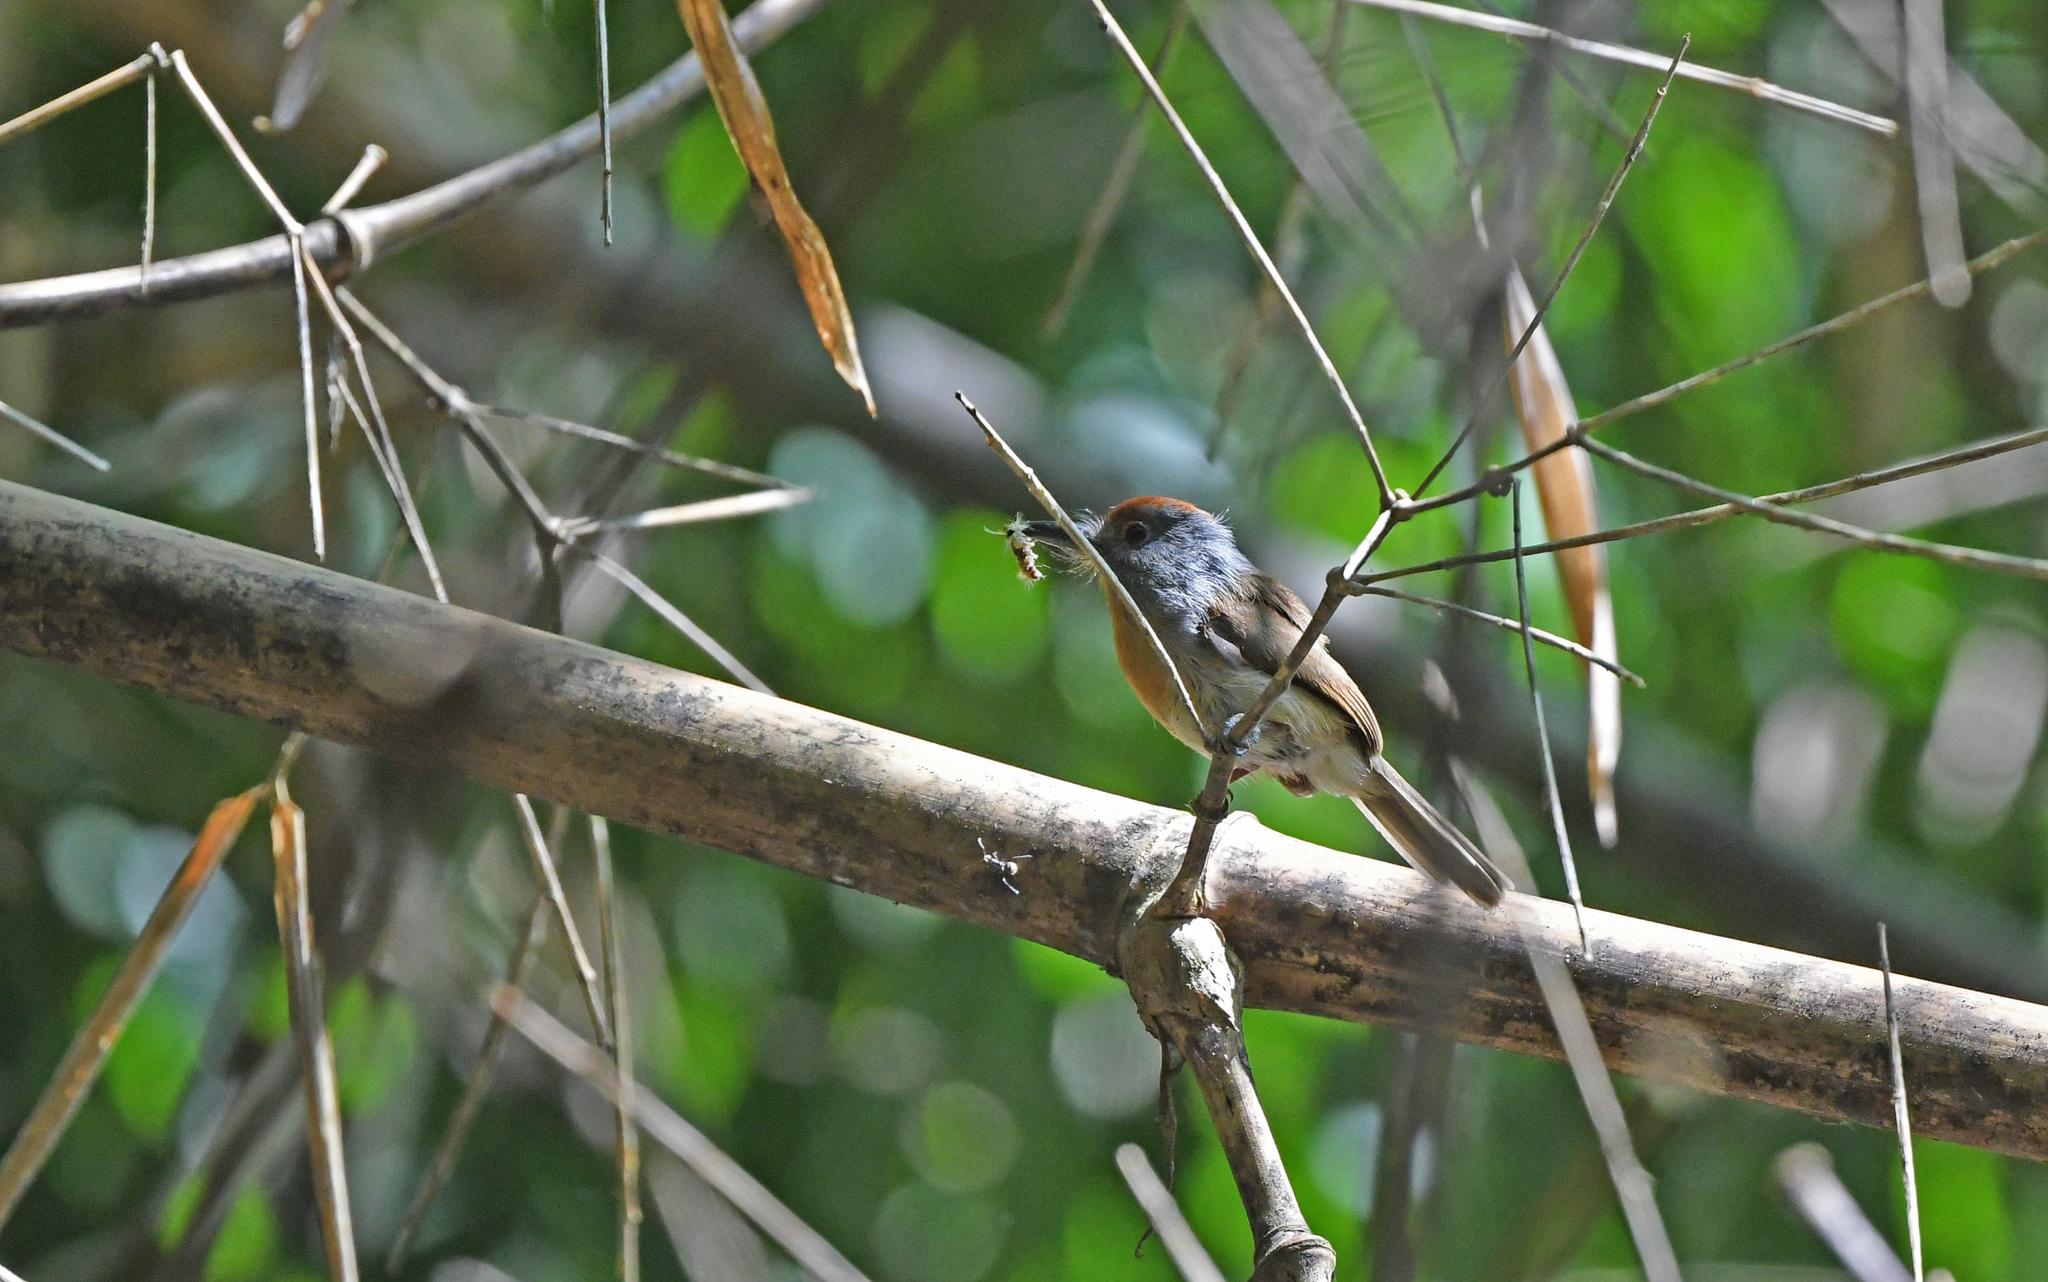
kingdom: Animalia
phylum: Chordata
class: Aves
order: Piciformes
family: Bucconidae
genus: Nonnula
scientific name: Nonnula ruficapilla
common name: Rufous-capped nunlet
